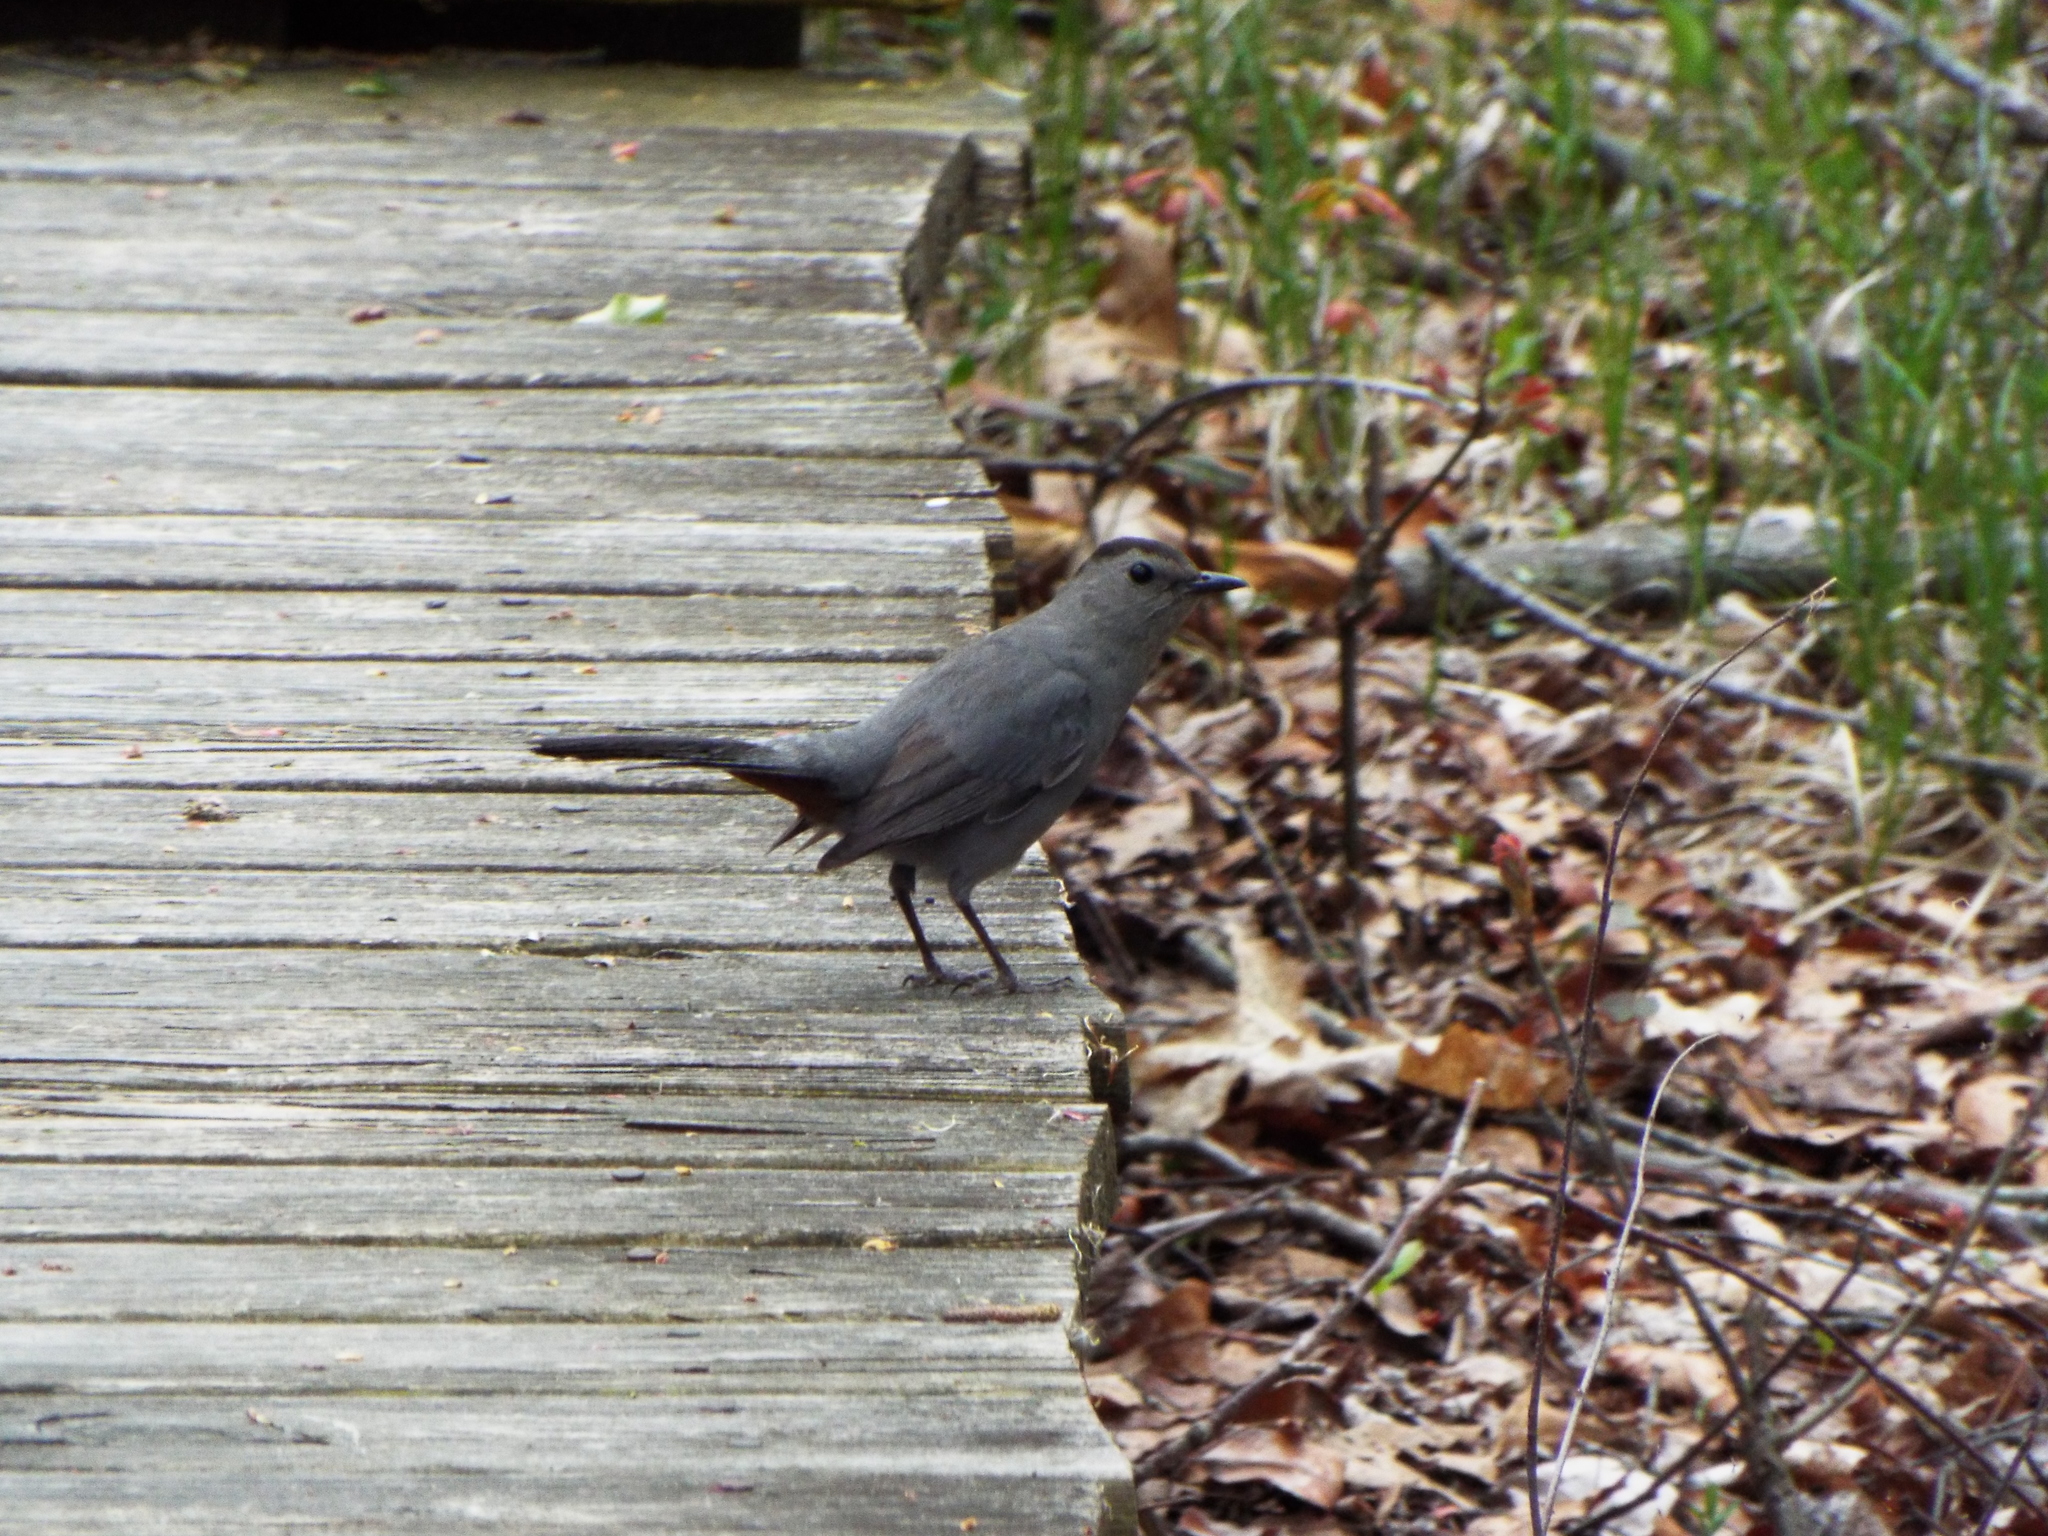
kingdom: Animalia
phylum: Chordata
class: Aves
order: Passeriformes
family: Mimidae
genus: Dumetella
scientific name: Dumetella carolinensis
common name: Gray catbird
